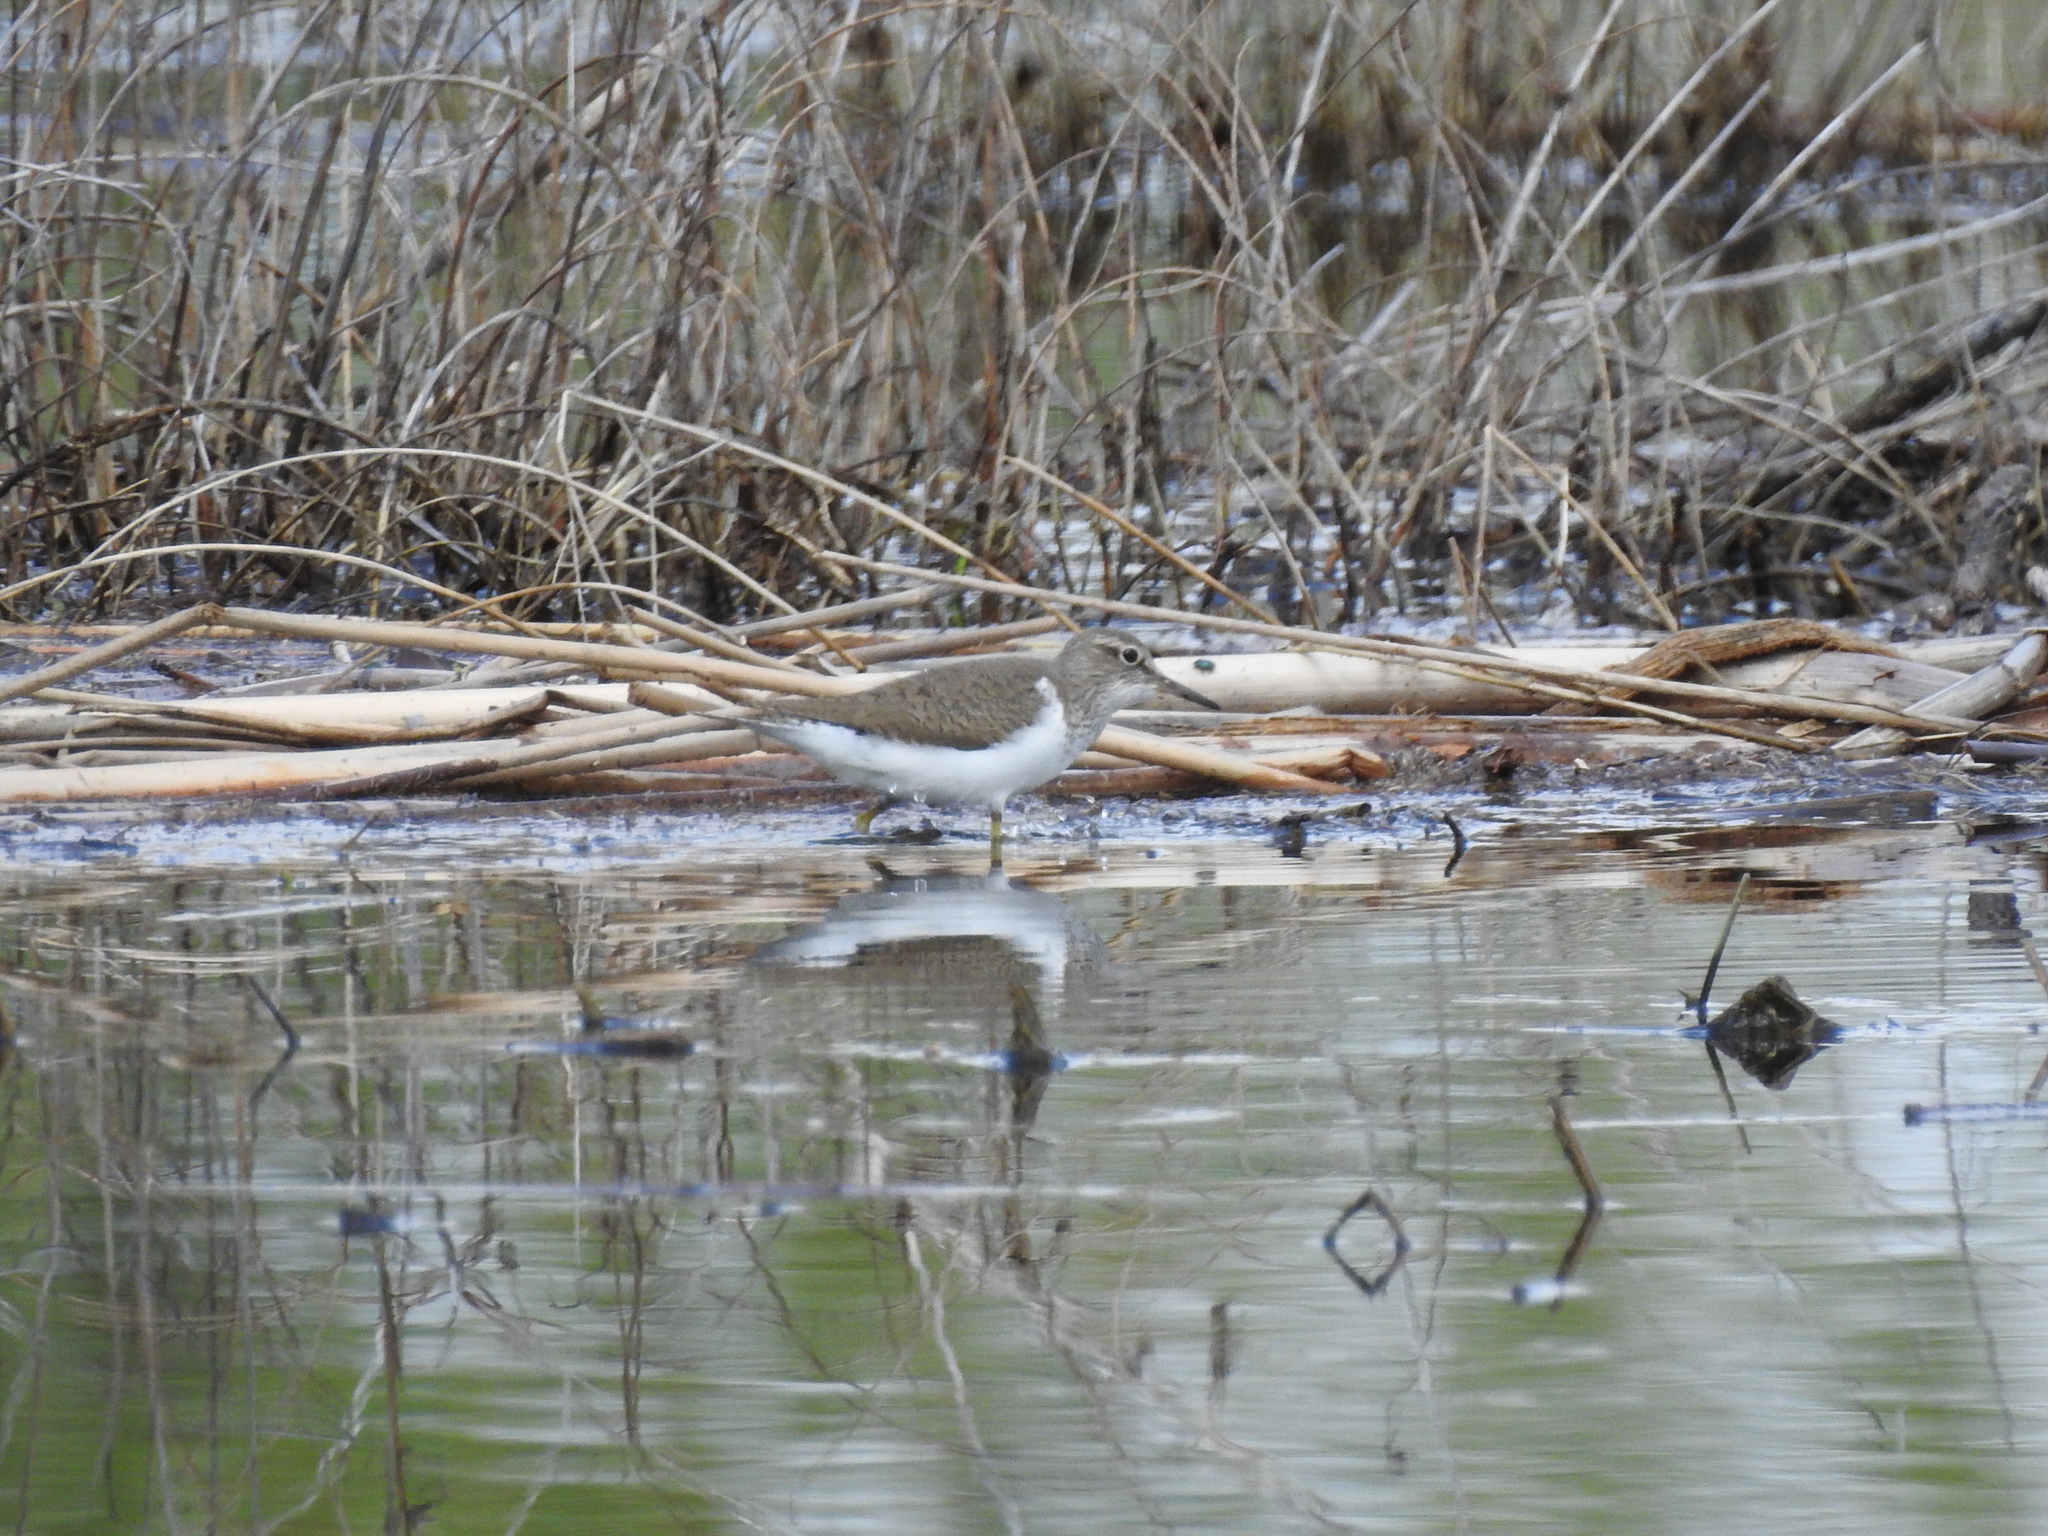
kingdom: Animalia
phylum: Chordata
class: Aves
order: Charadriiformes
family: Scolopacidae
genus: Actitis
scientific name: Actitis hypoleucos
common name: Common sandpiper
